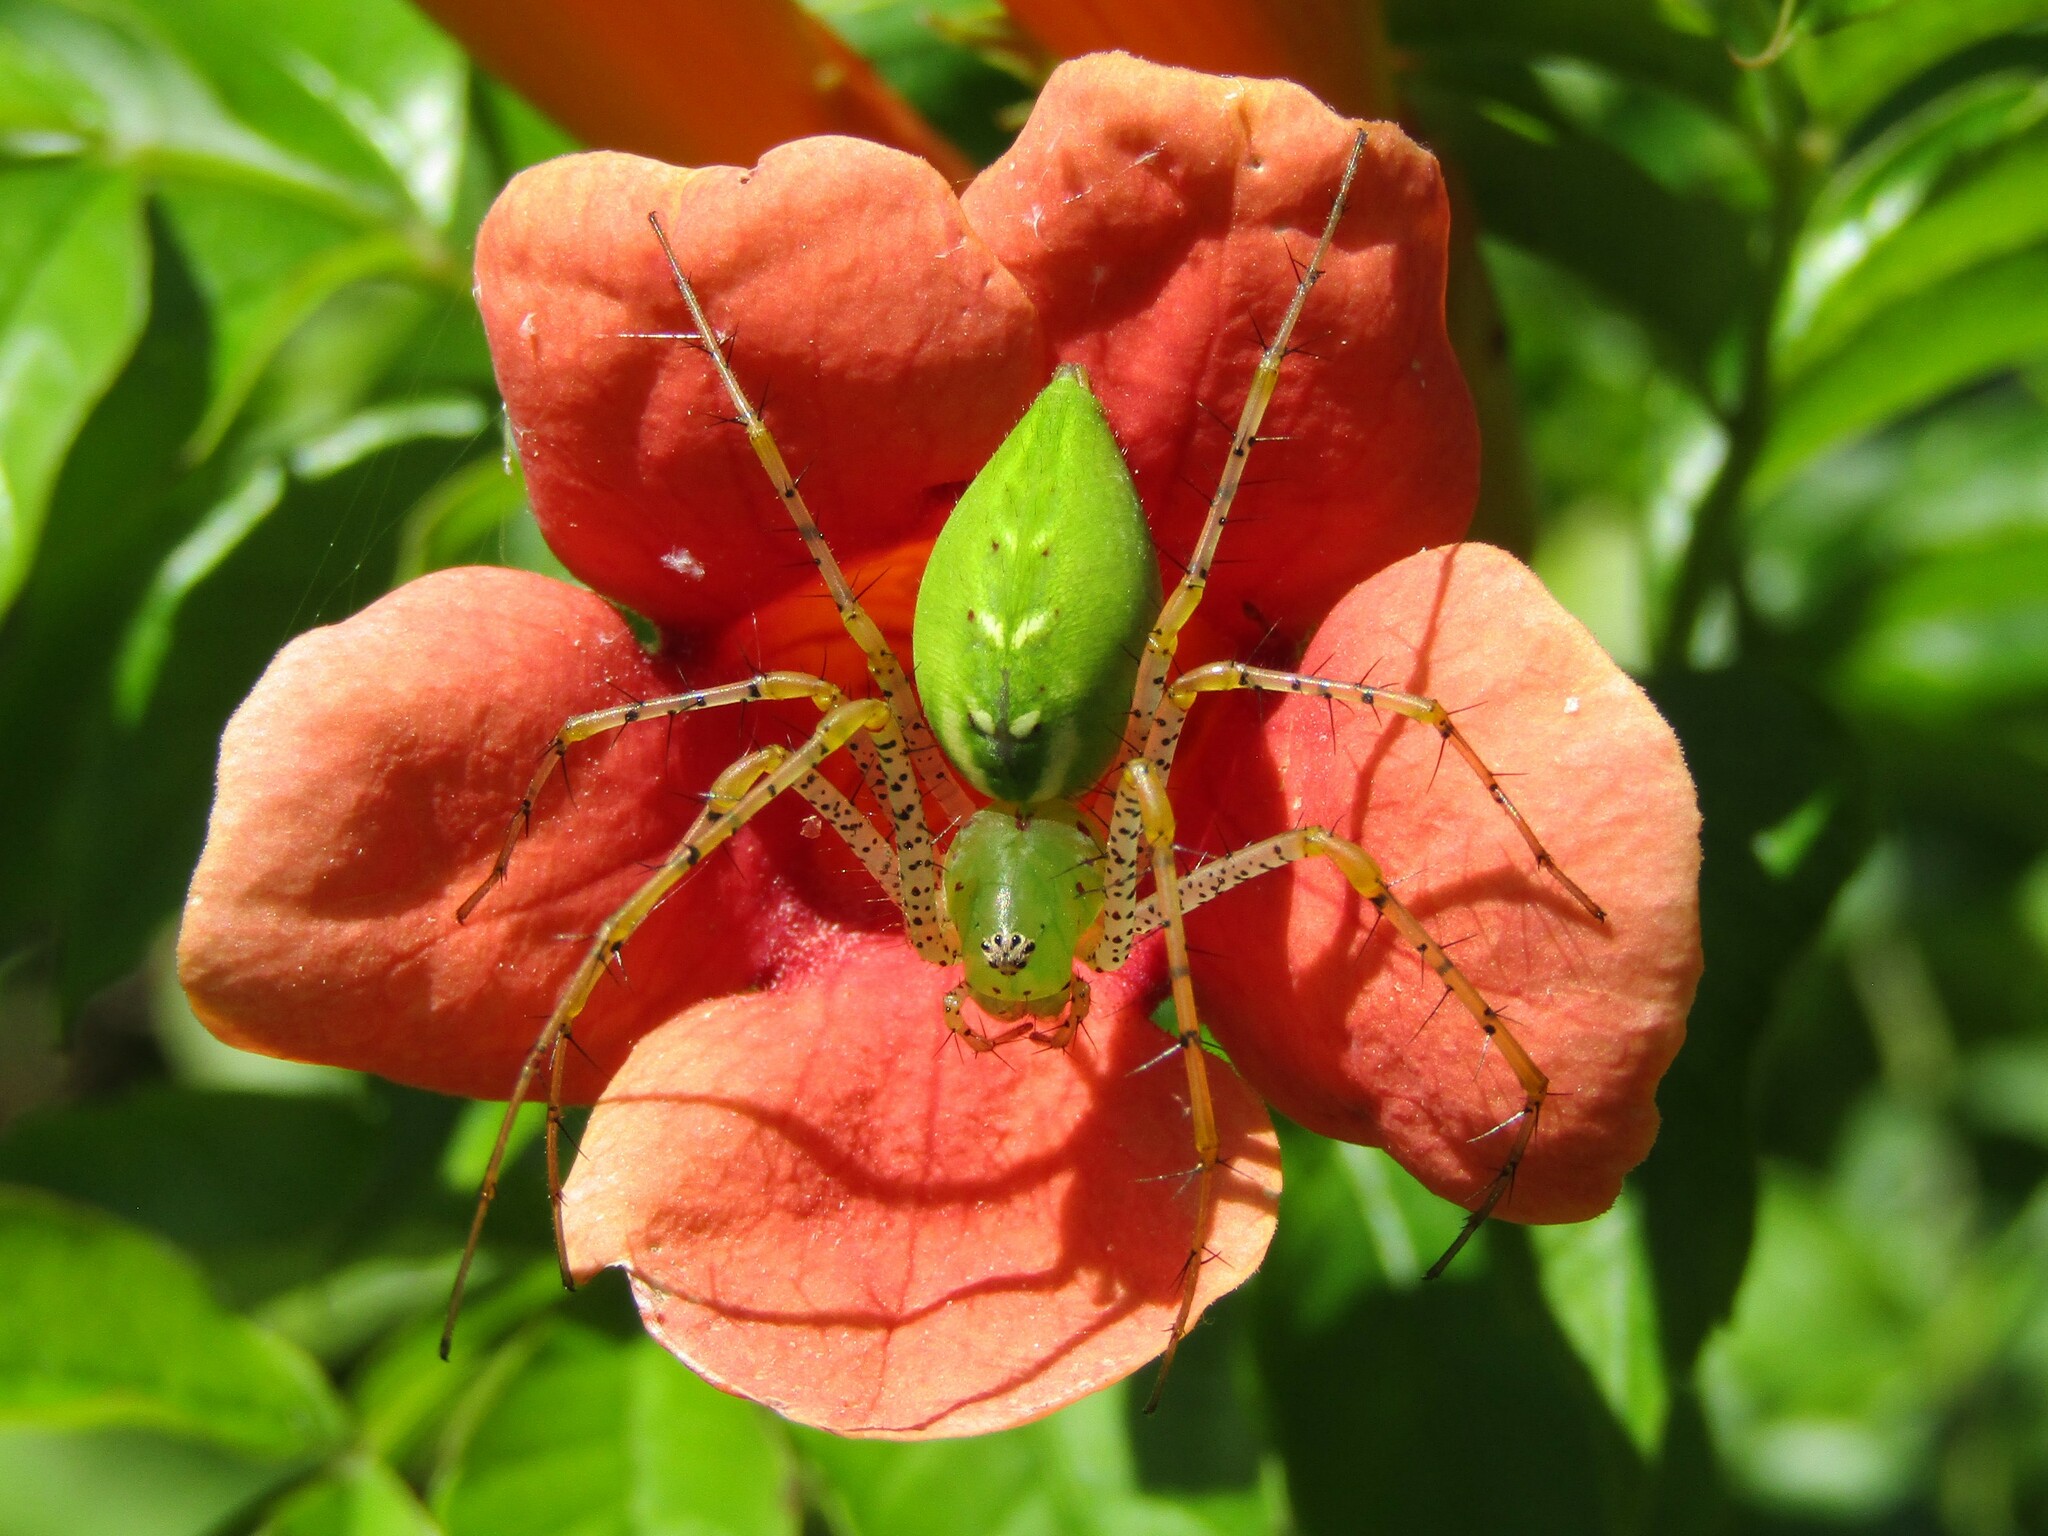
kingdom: Animalia
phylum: Arthropoda
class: Arachnida
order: Araneae
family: Oxyopidae
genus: Peucetia
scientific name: Peucetia viridans
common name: Lynx spiders
